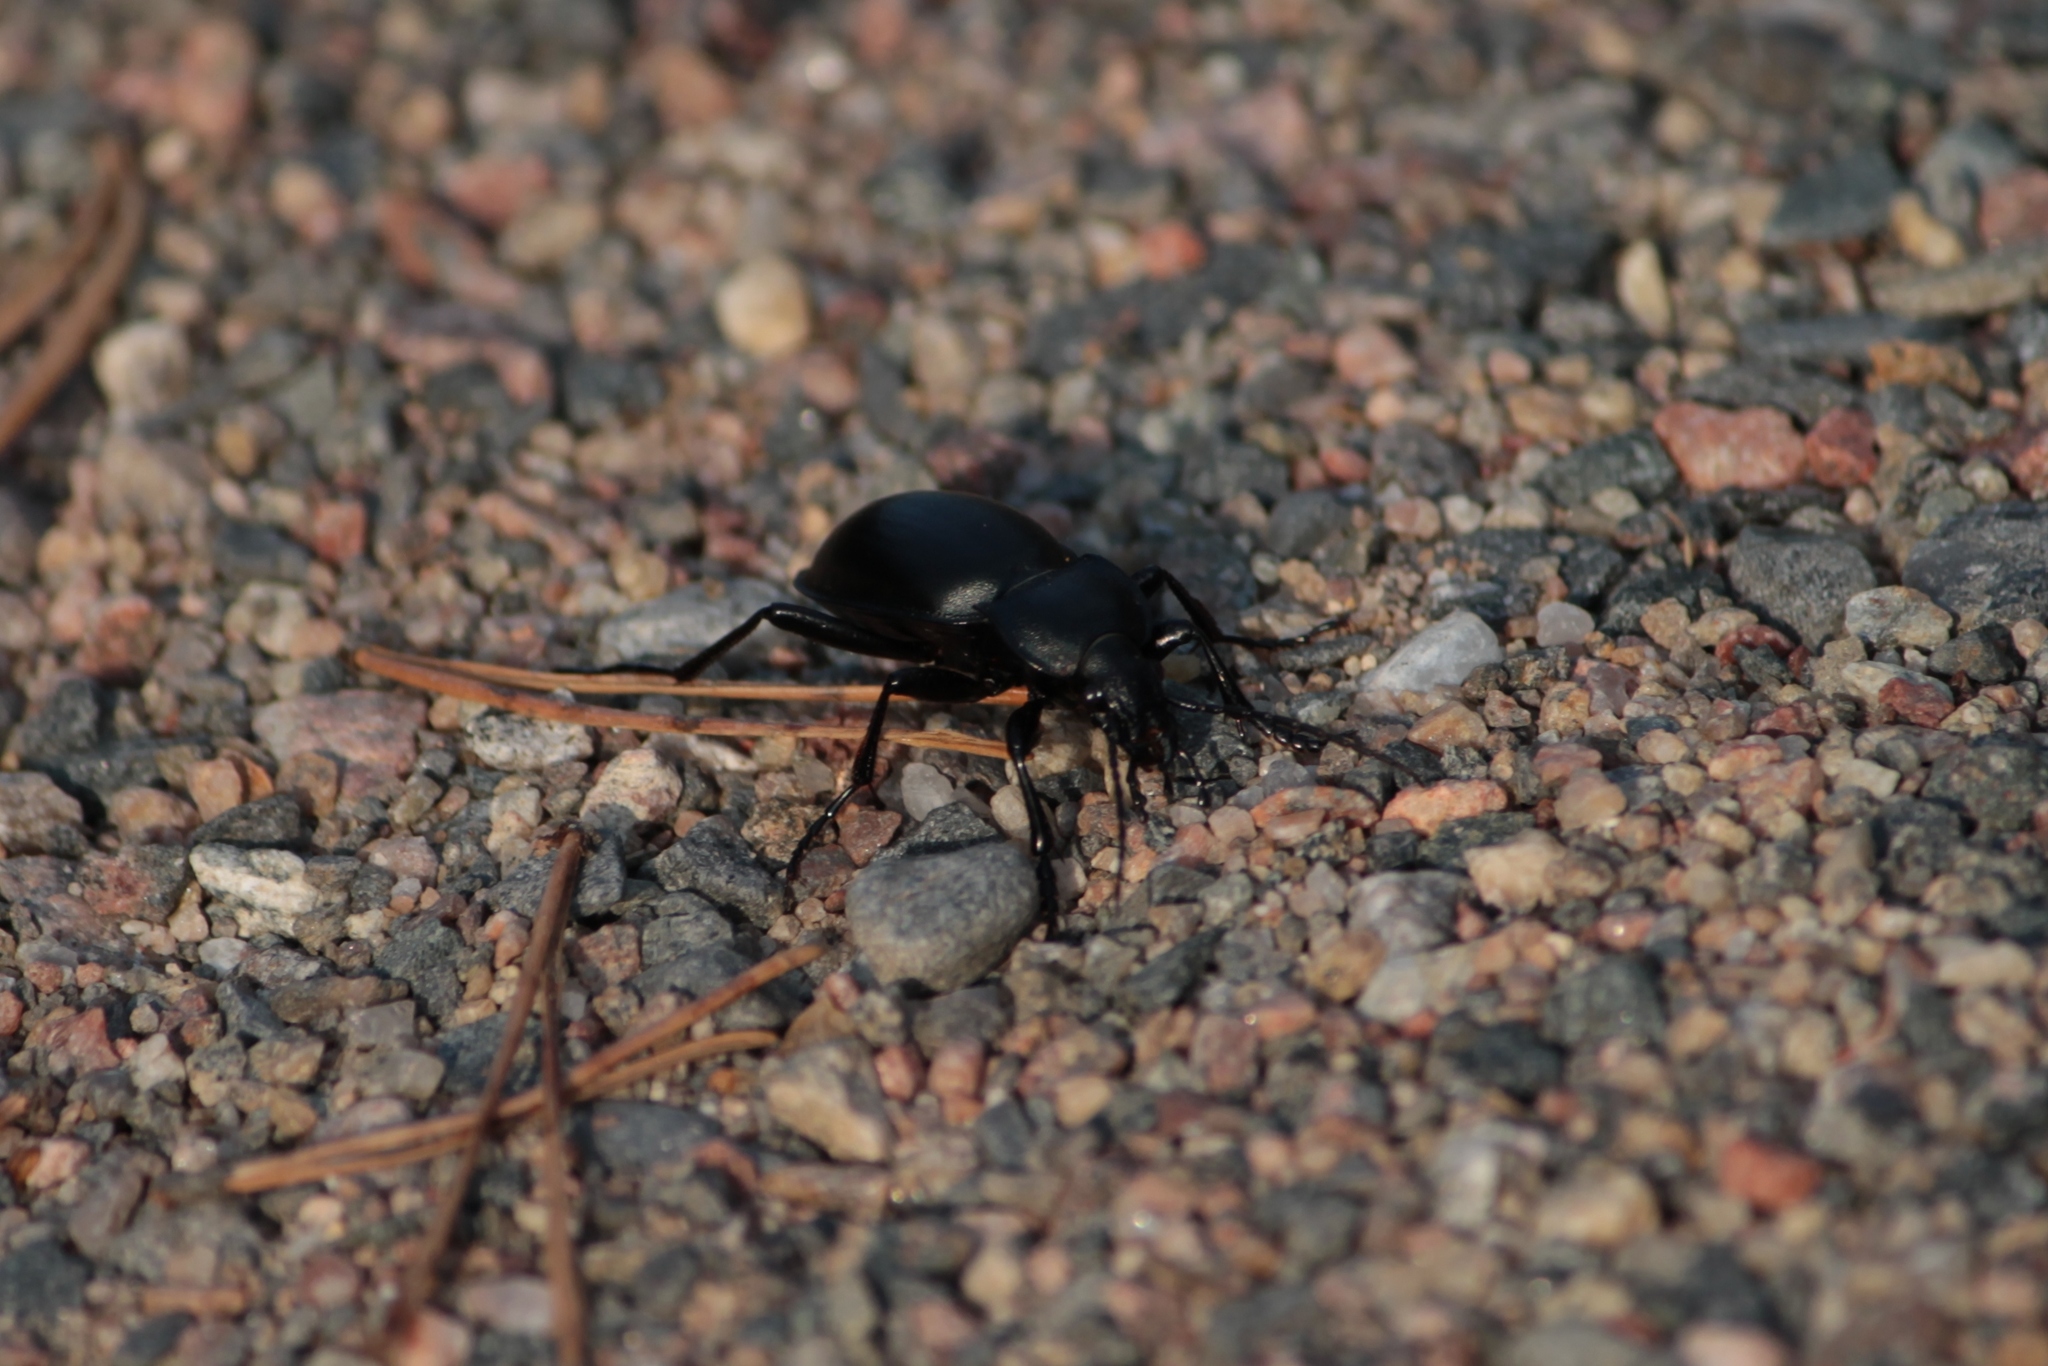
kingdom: Animalia
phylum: Arthropoda
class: Insecta
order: Coleoptera
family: Carabidae
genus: Carabus
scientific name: Carabus glabratus
